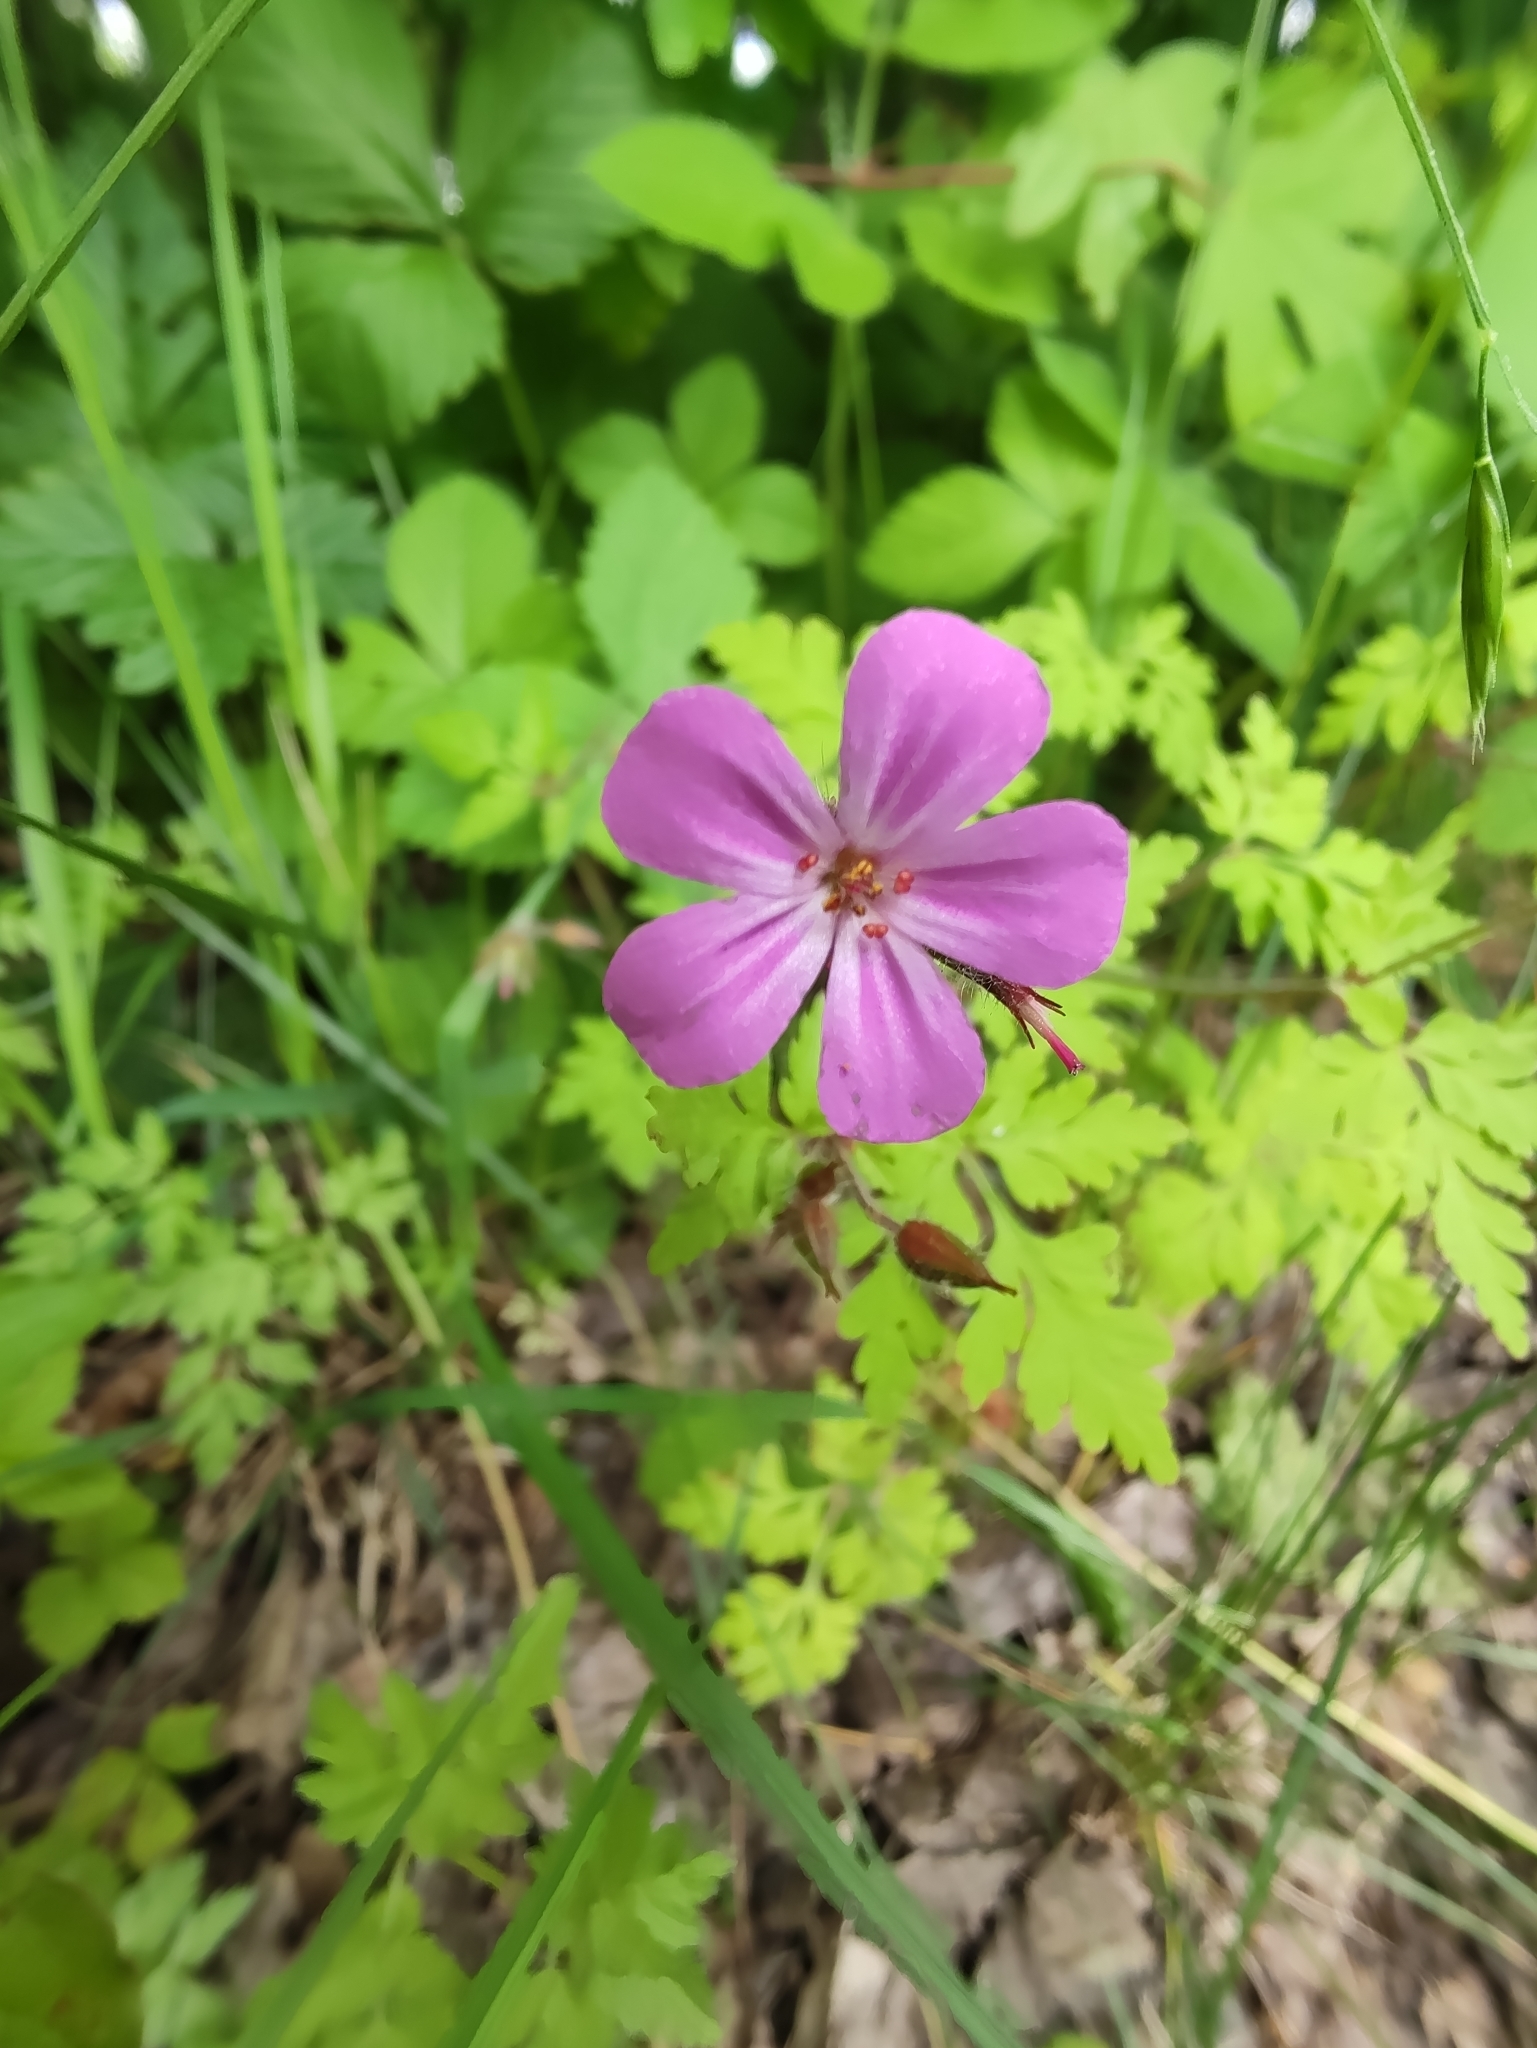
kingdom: Plantae
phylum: Tracheophyta
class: Magnoliopsida
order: Geraniales
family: Geraniaceae
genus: Geranium
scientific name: Geranium robertianum
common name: Herb-robert
